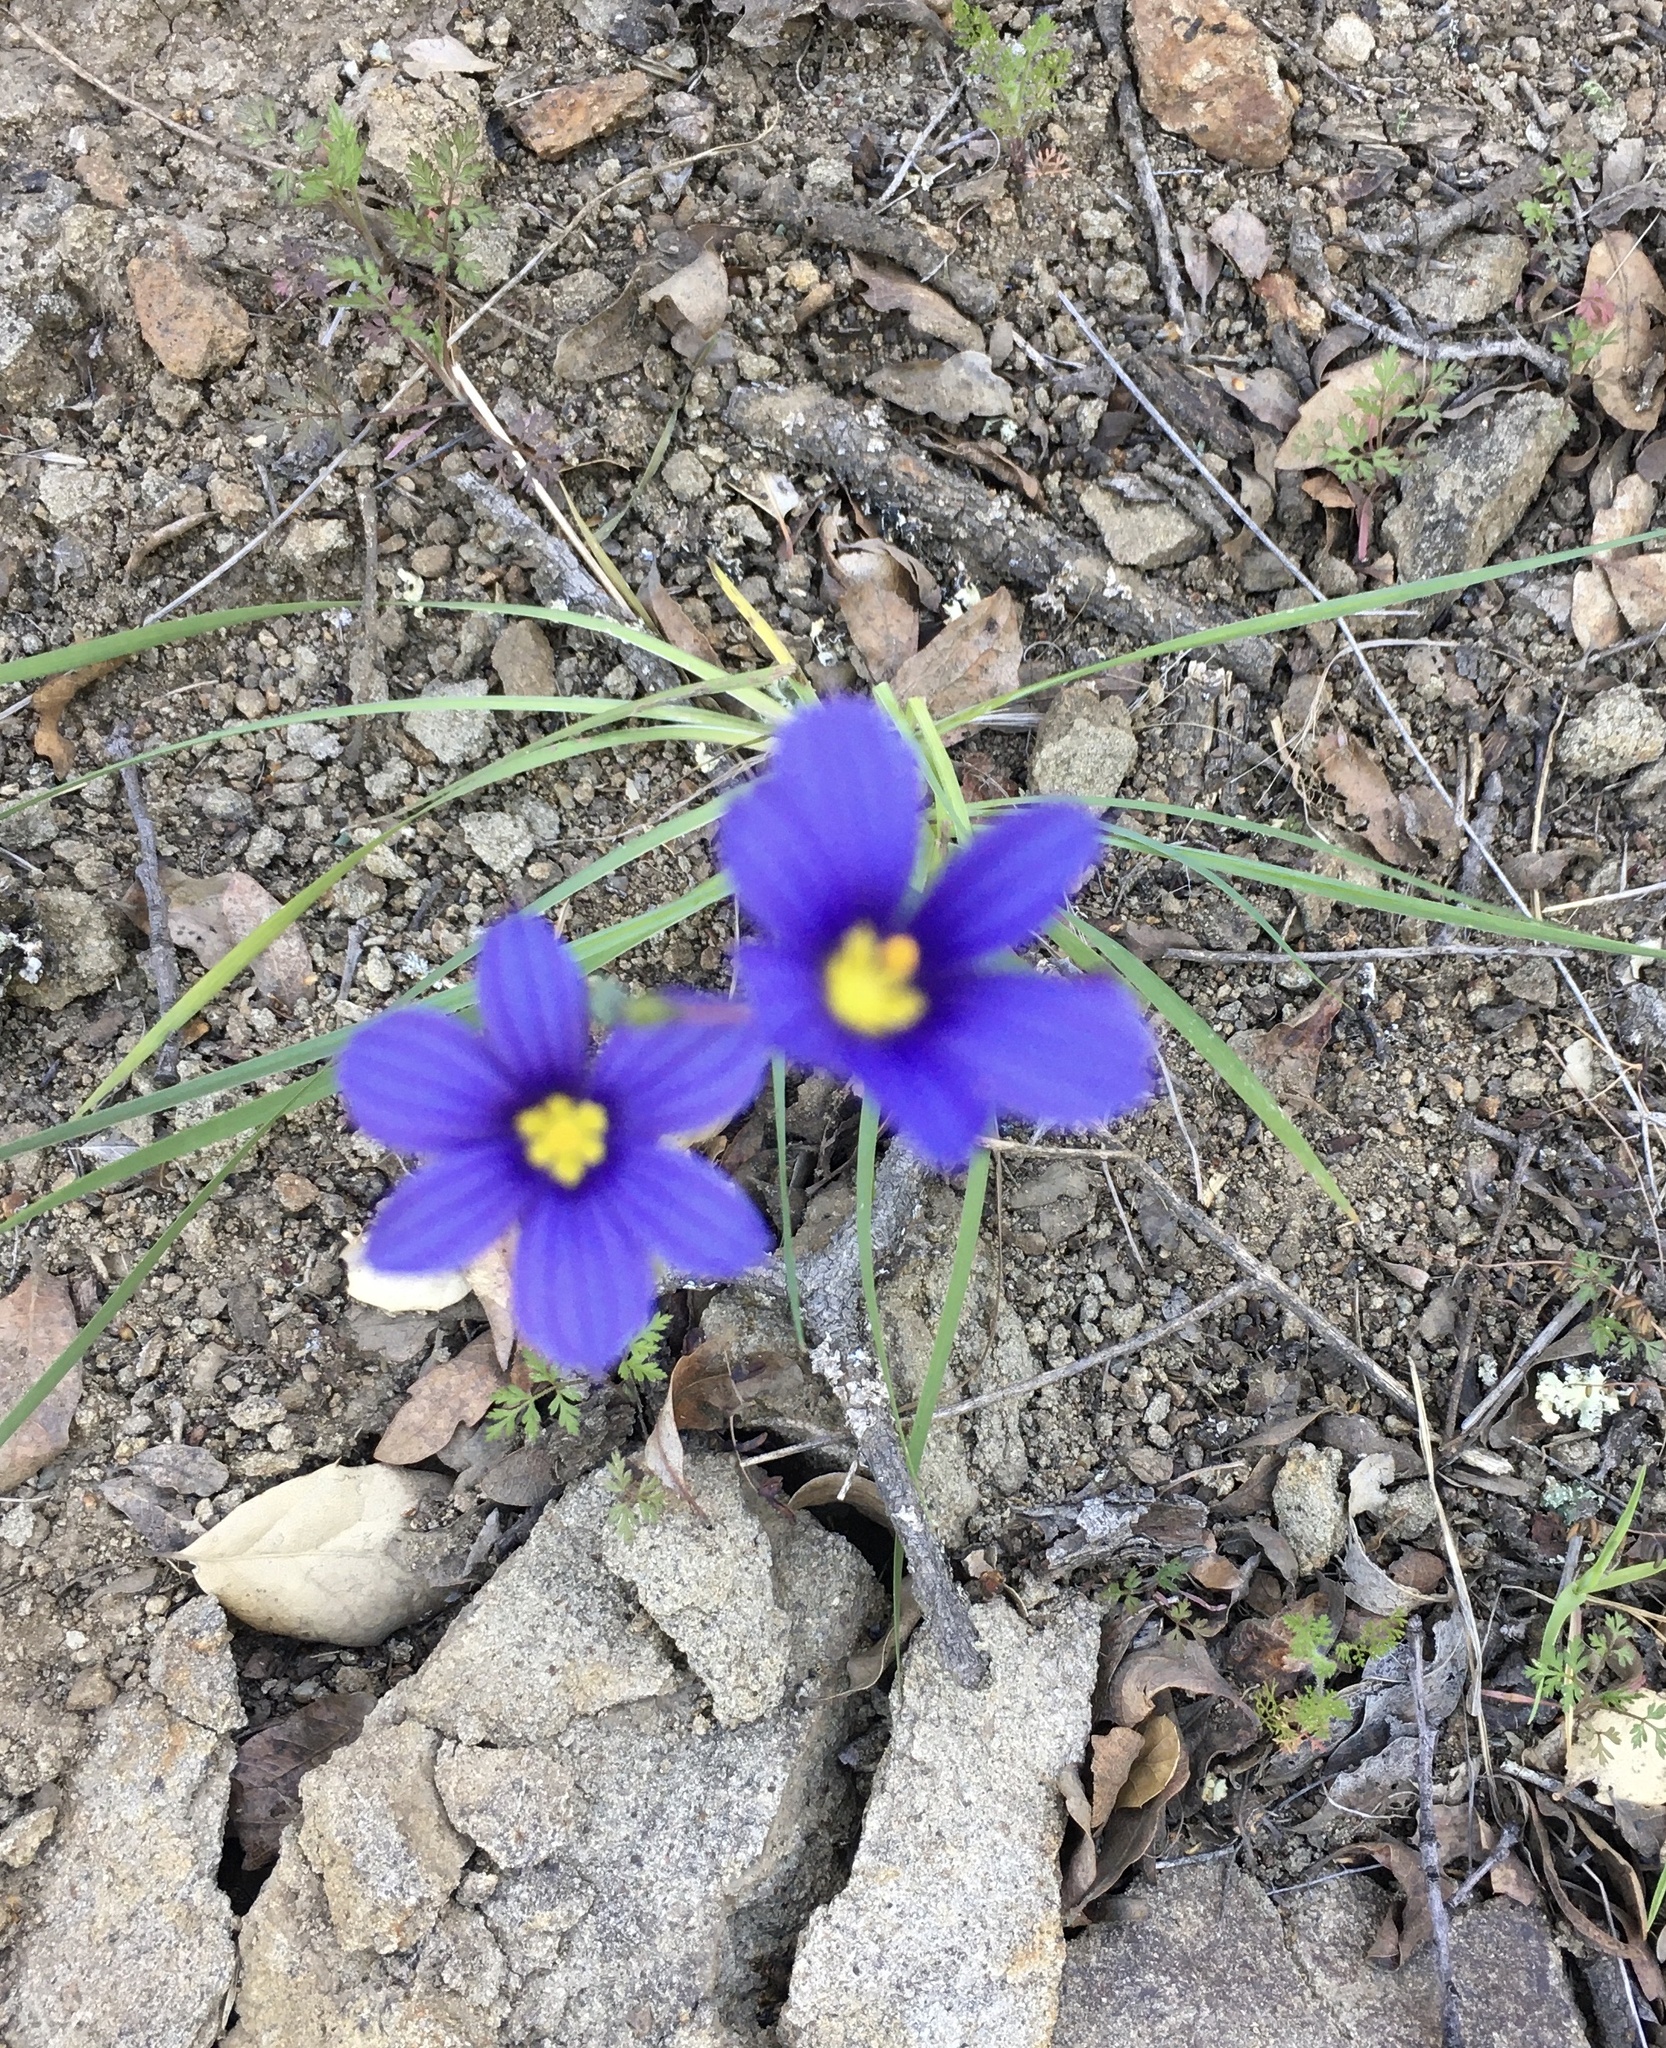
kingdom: Plantae
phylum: Tracheophyta
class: Liliopsida
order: Asparagales
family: Iridaceae
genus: Sisyrinchium
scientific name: Sisyrinchium bellum
